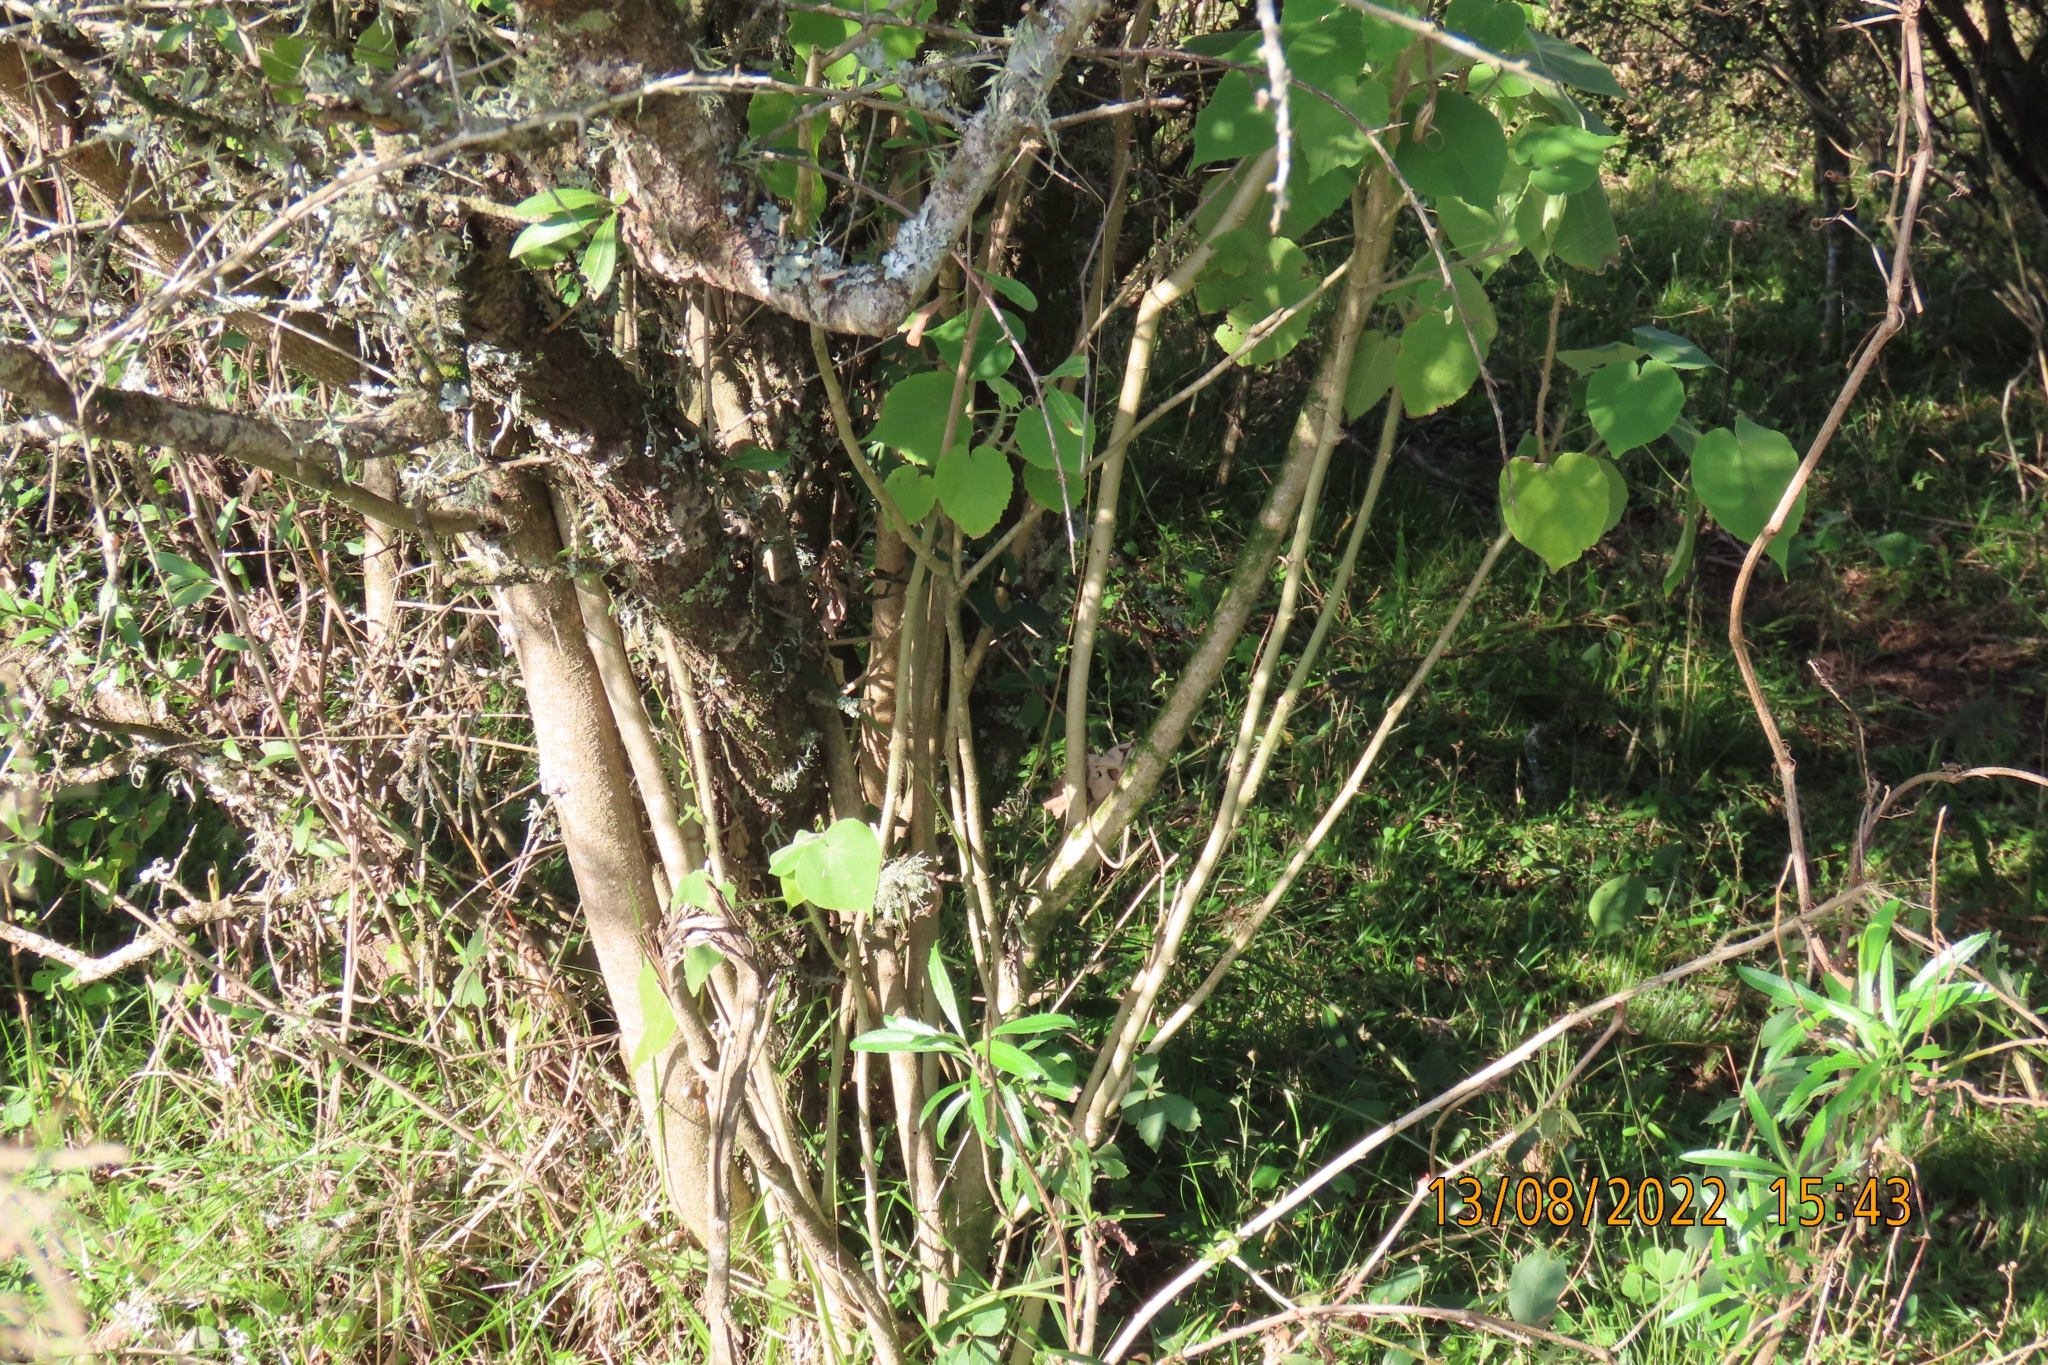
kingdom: Plantae
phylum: Tracheophyta
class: Magnoliopsida
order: Malvales
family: Malvaceae
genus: Abutilon
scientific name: Abutilon grandifolium
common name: Hairy abutilon
